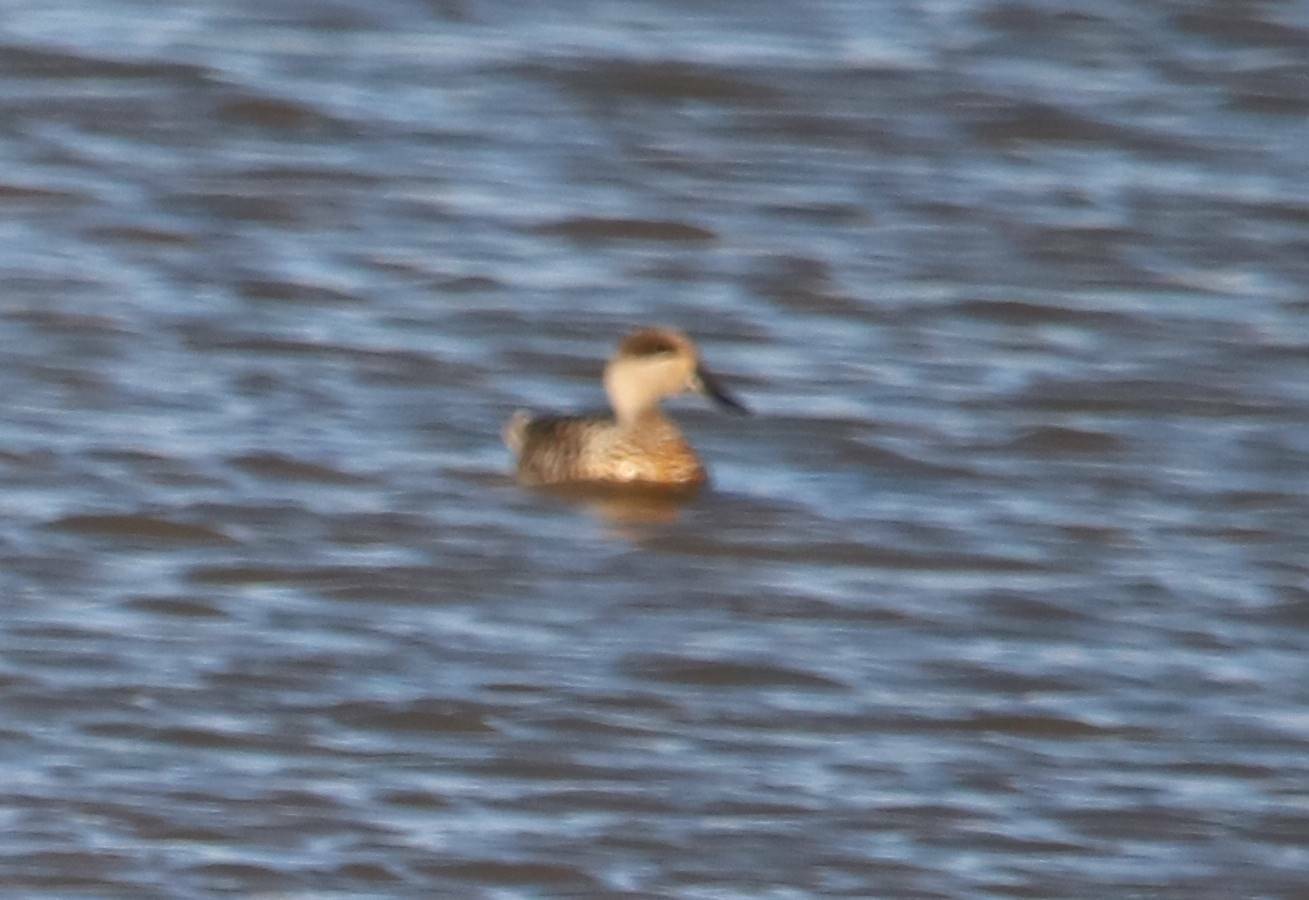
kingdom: Animalia
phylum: Chordata
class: Aves
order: Anseriformes
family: Anatidae
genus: Marmaronetta
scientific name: Marmaronetta angustirostris
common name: Marbled duck
